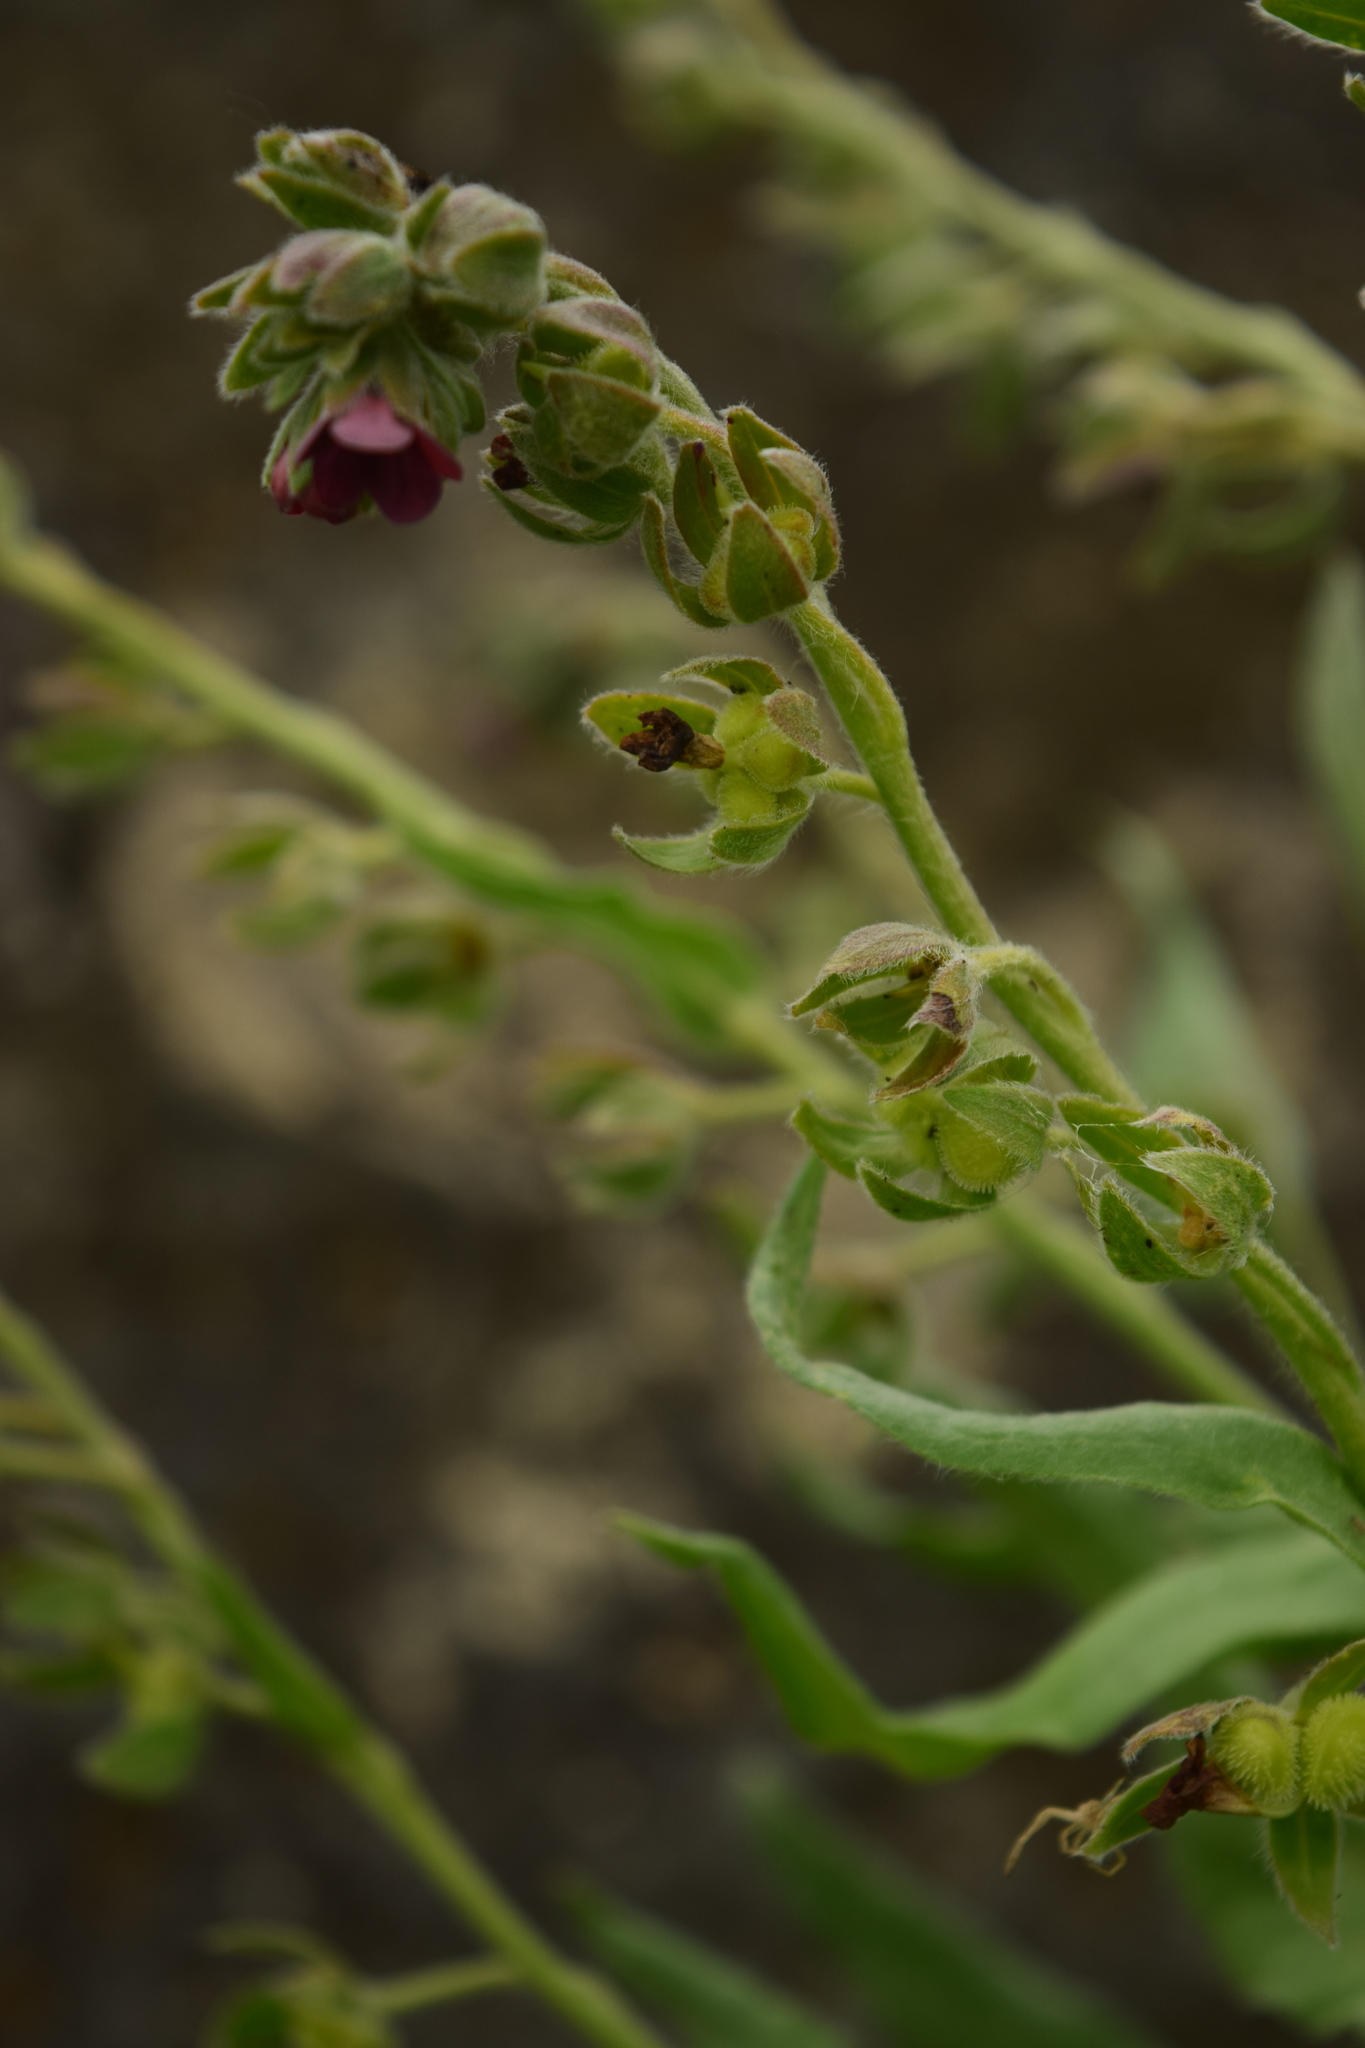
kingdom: Plantae
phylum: Tracheophyta
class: Magnoliopsida
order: Boraginales
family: Boraginaceae
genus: Cynoglossum
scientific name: Cynoglossum officinale
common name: Hound's-tongue
